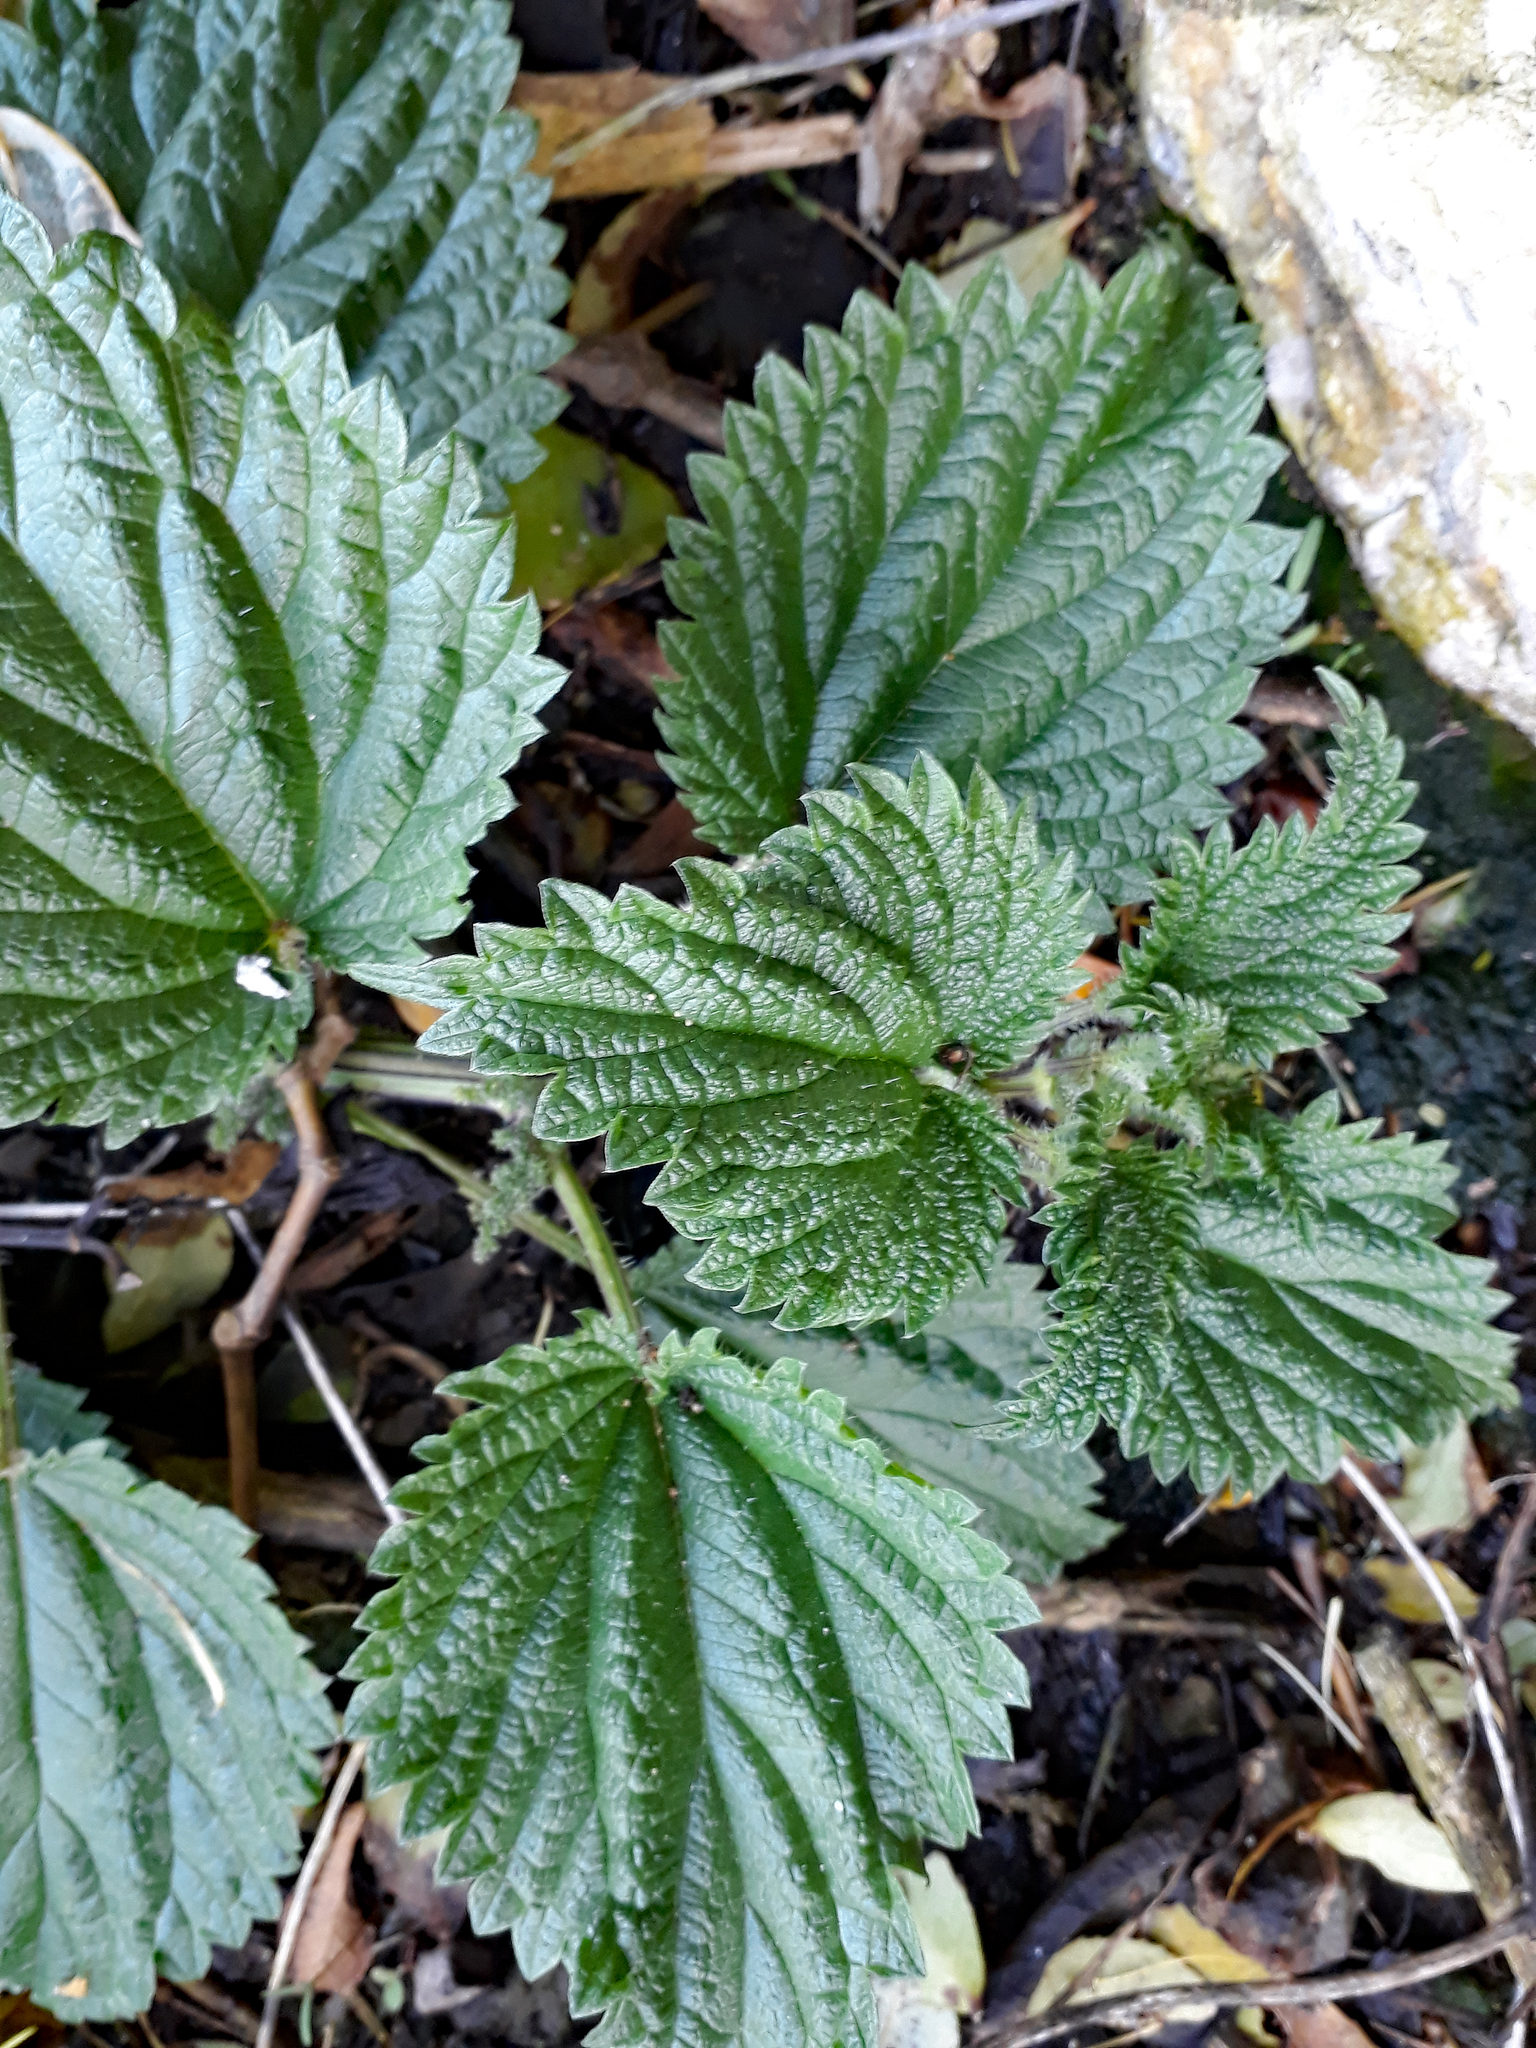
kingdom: Plantae
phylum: Tracheophyta
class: Magnoliopsida
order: Rosales
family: Urticaceae
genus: Urtica
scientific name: Urtica australis
